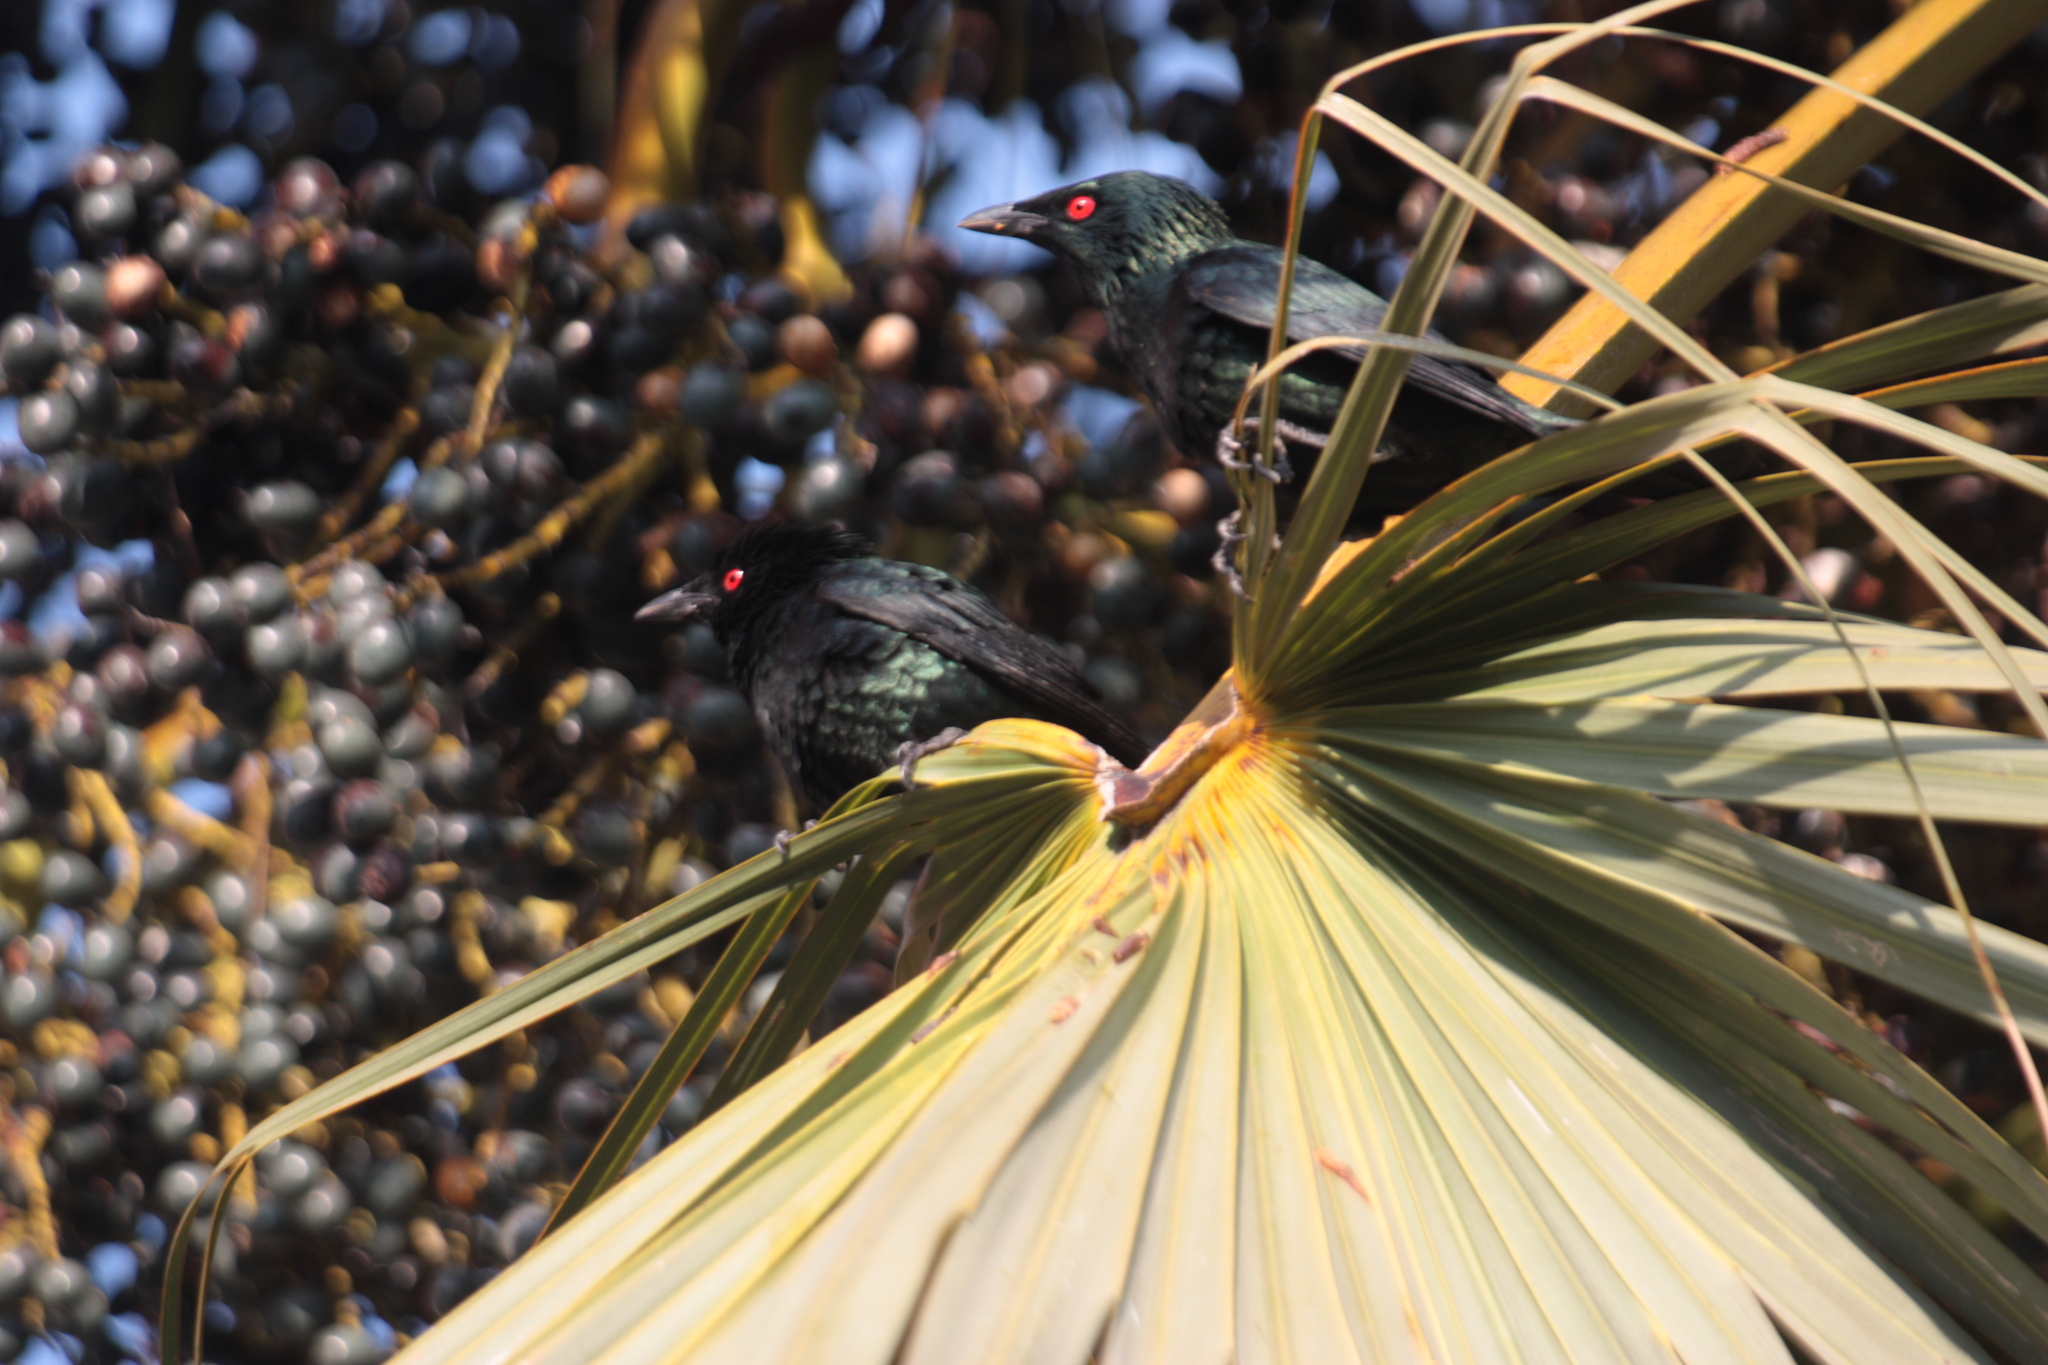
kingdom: Animalia
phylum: Chordata
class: Aves
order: Passeriformes
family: Sturnidae
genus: Aplonis
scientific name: Aplonis panayensis
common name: Asian glossy starling
